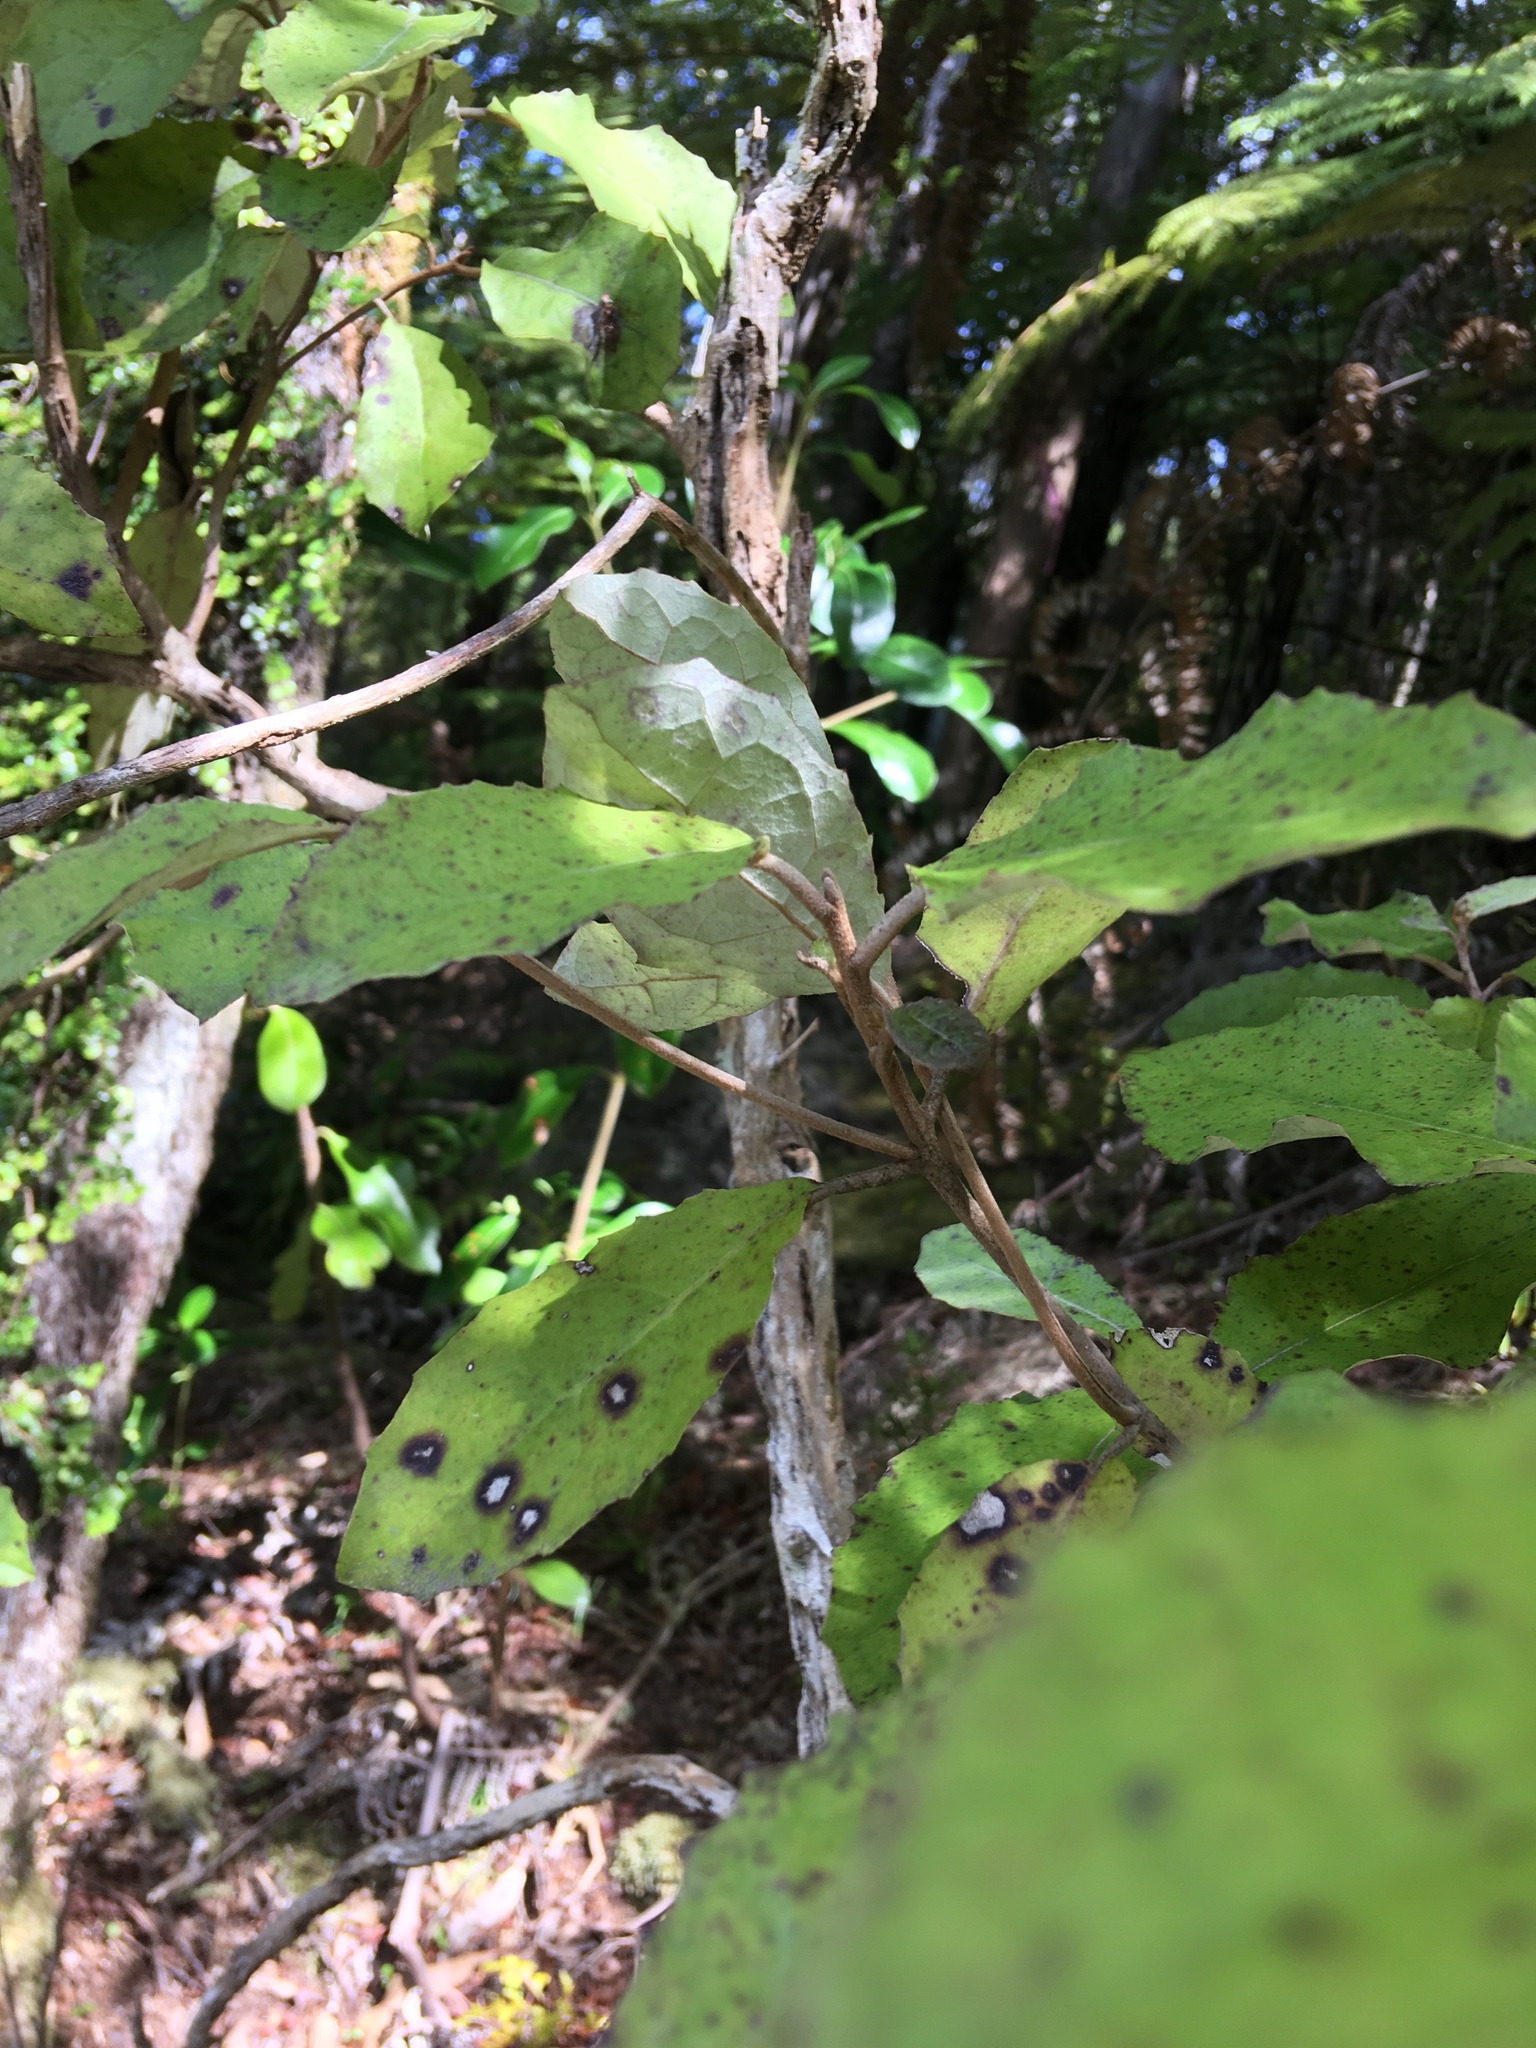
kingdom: Plantae
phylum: Tracheophyta
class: Magnoliopsida
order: Asterales
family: Asteraceae
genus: Olearia
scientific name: Olearia rani
